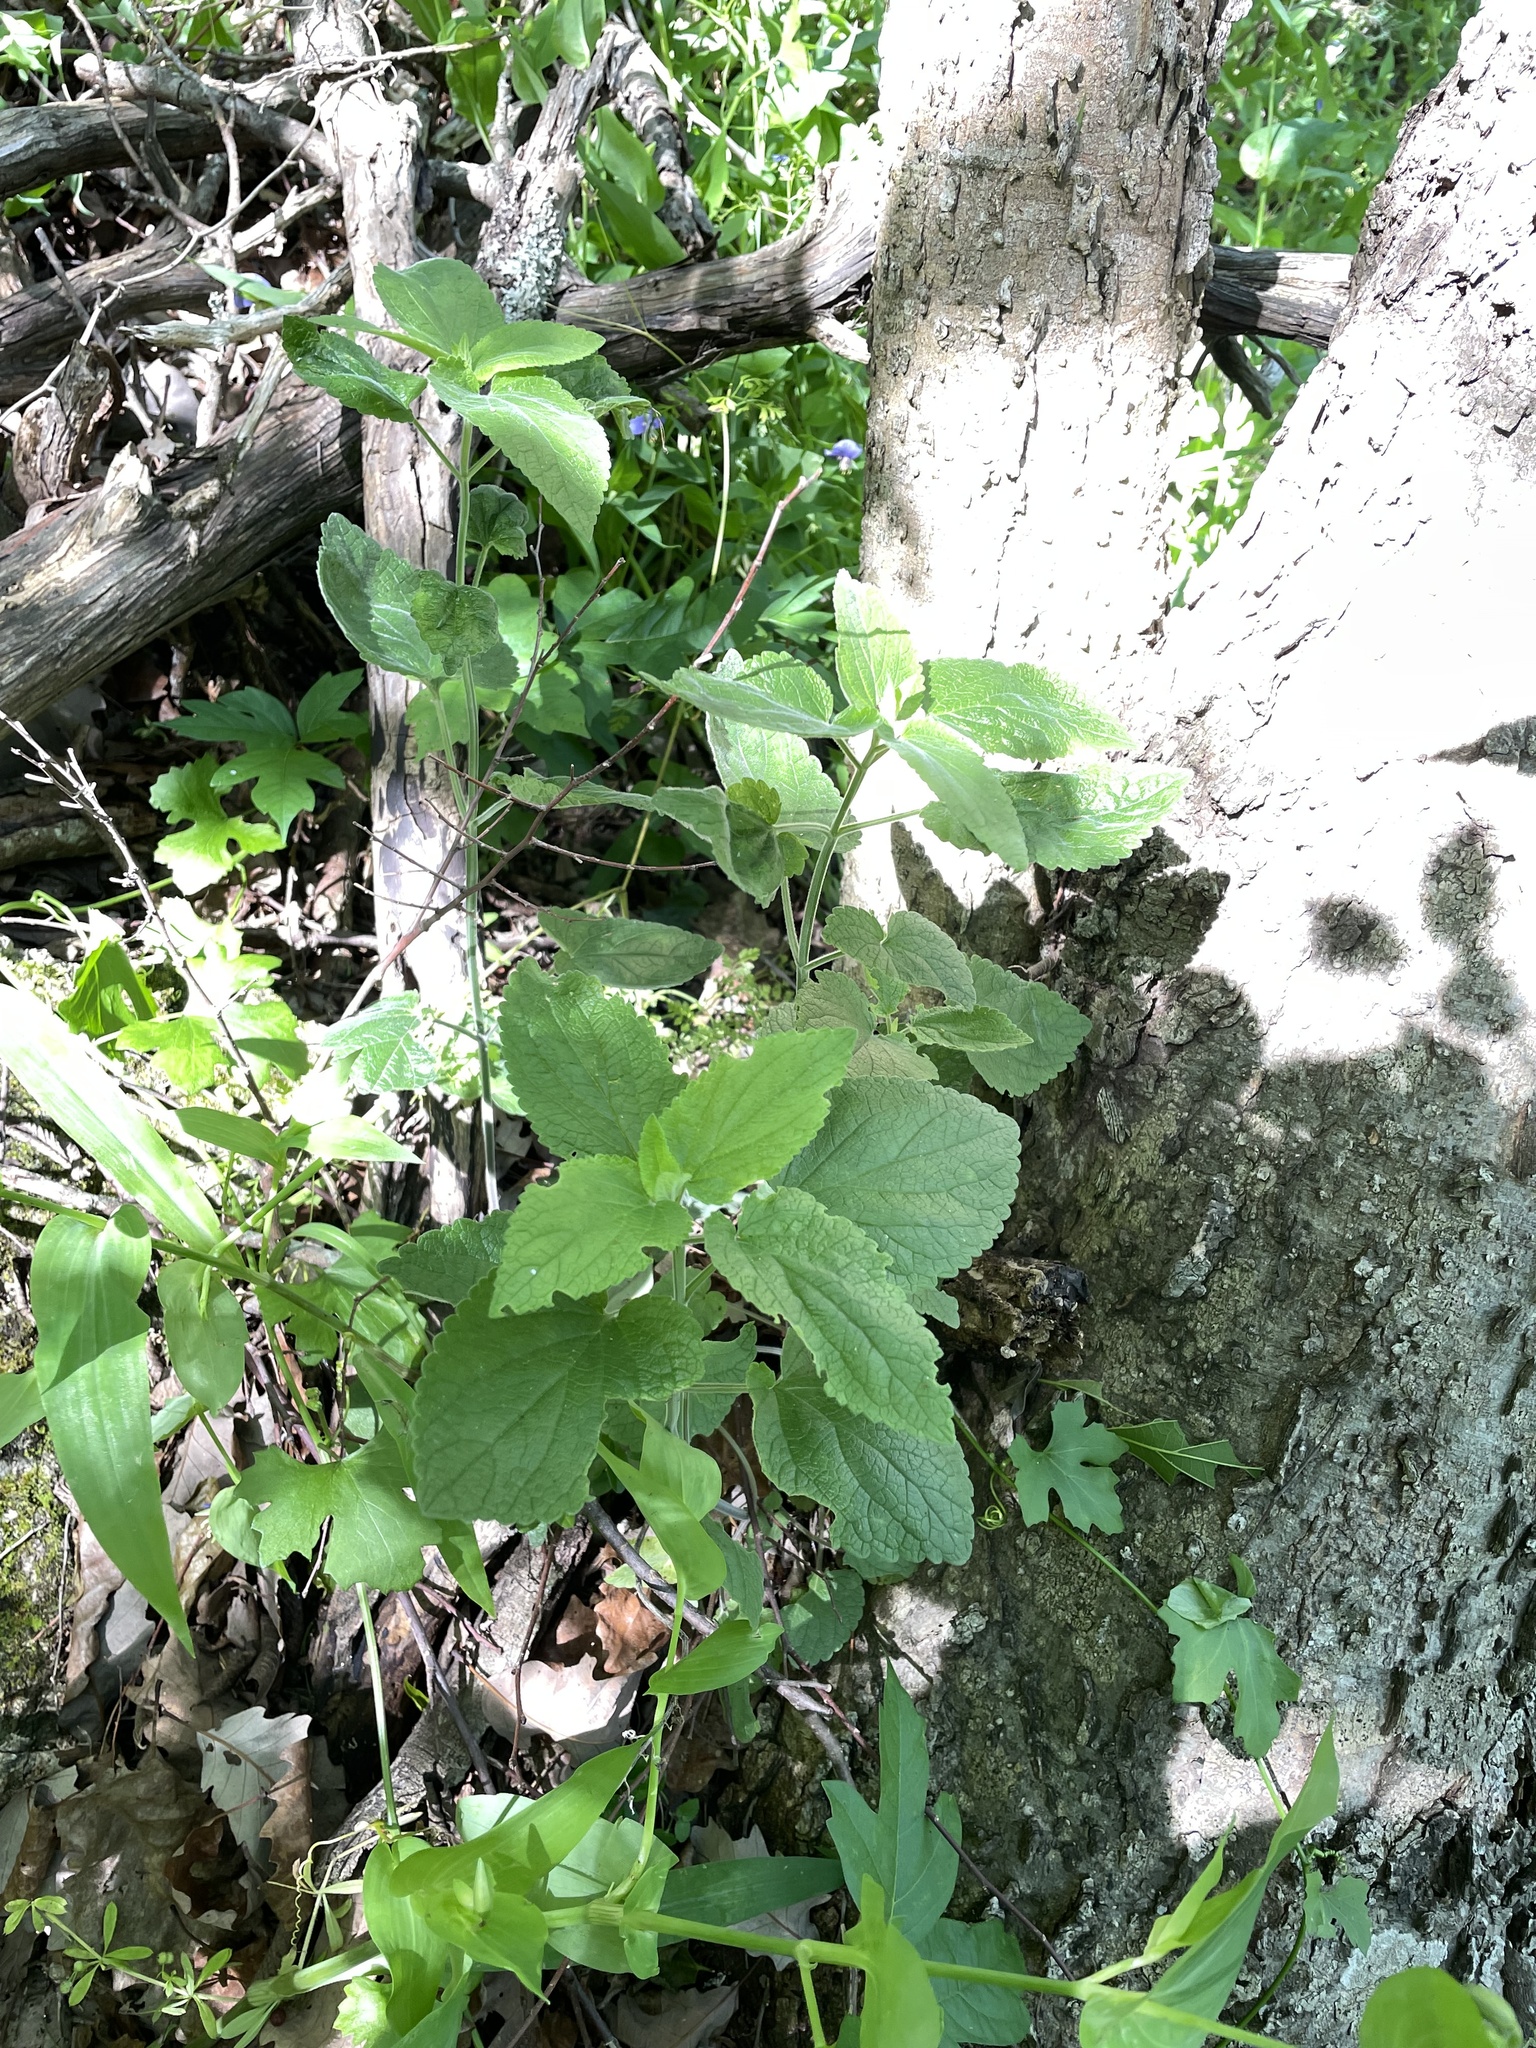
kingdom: Plantae
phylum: Tracheophyta
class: Magnoliopsida
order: Lamiales
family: Lamiaceae
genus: Scutellaria
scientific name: Scutellaria ovata
